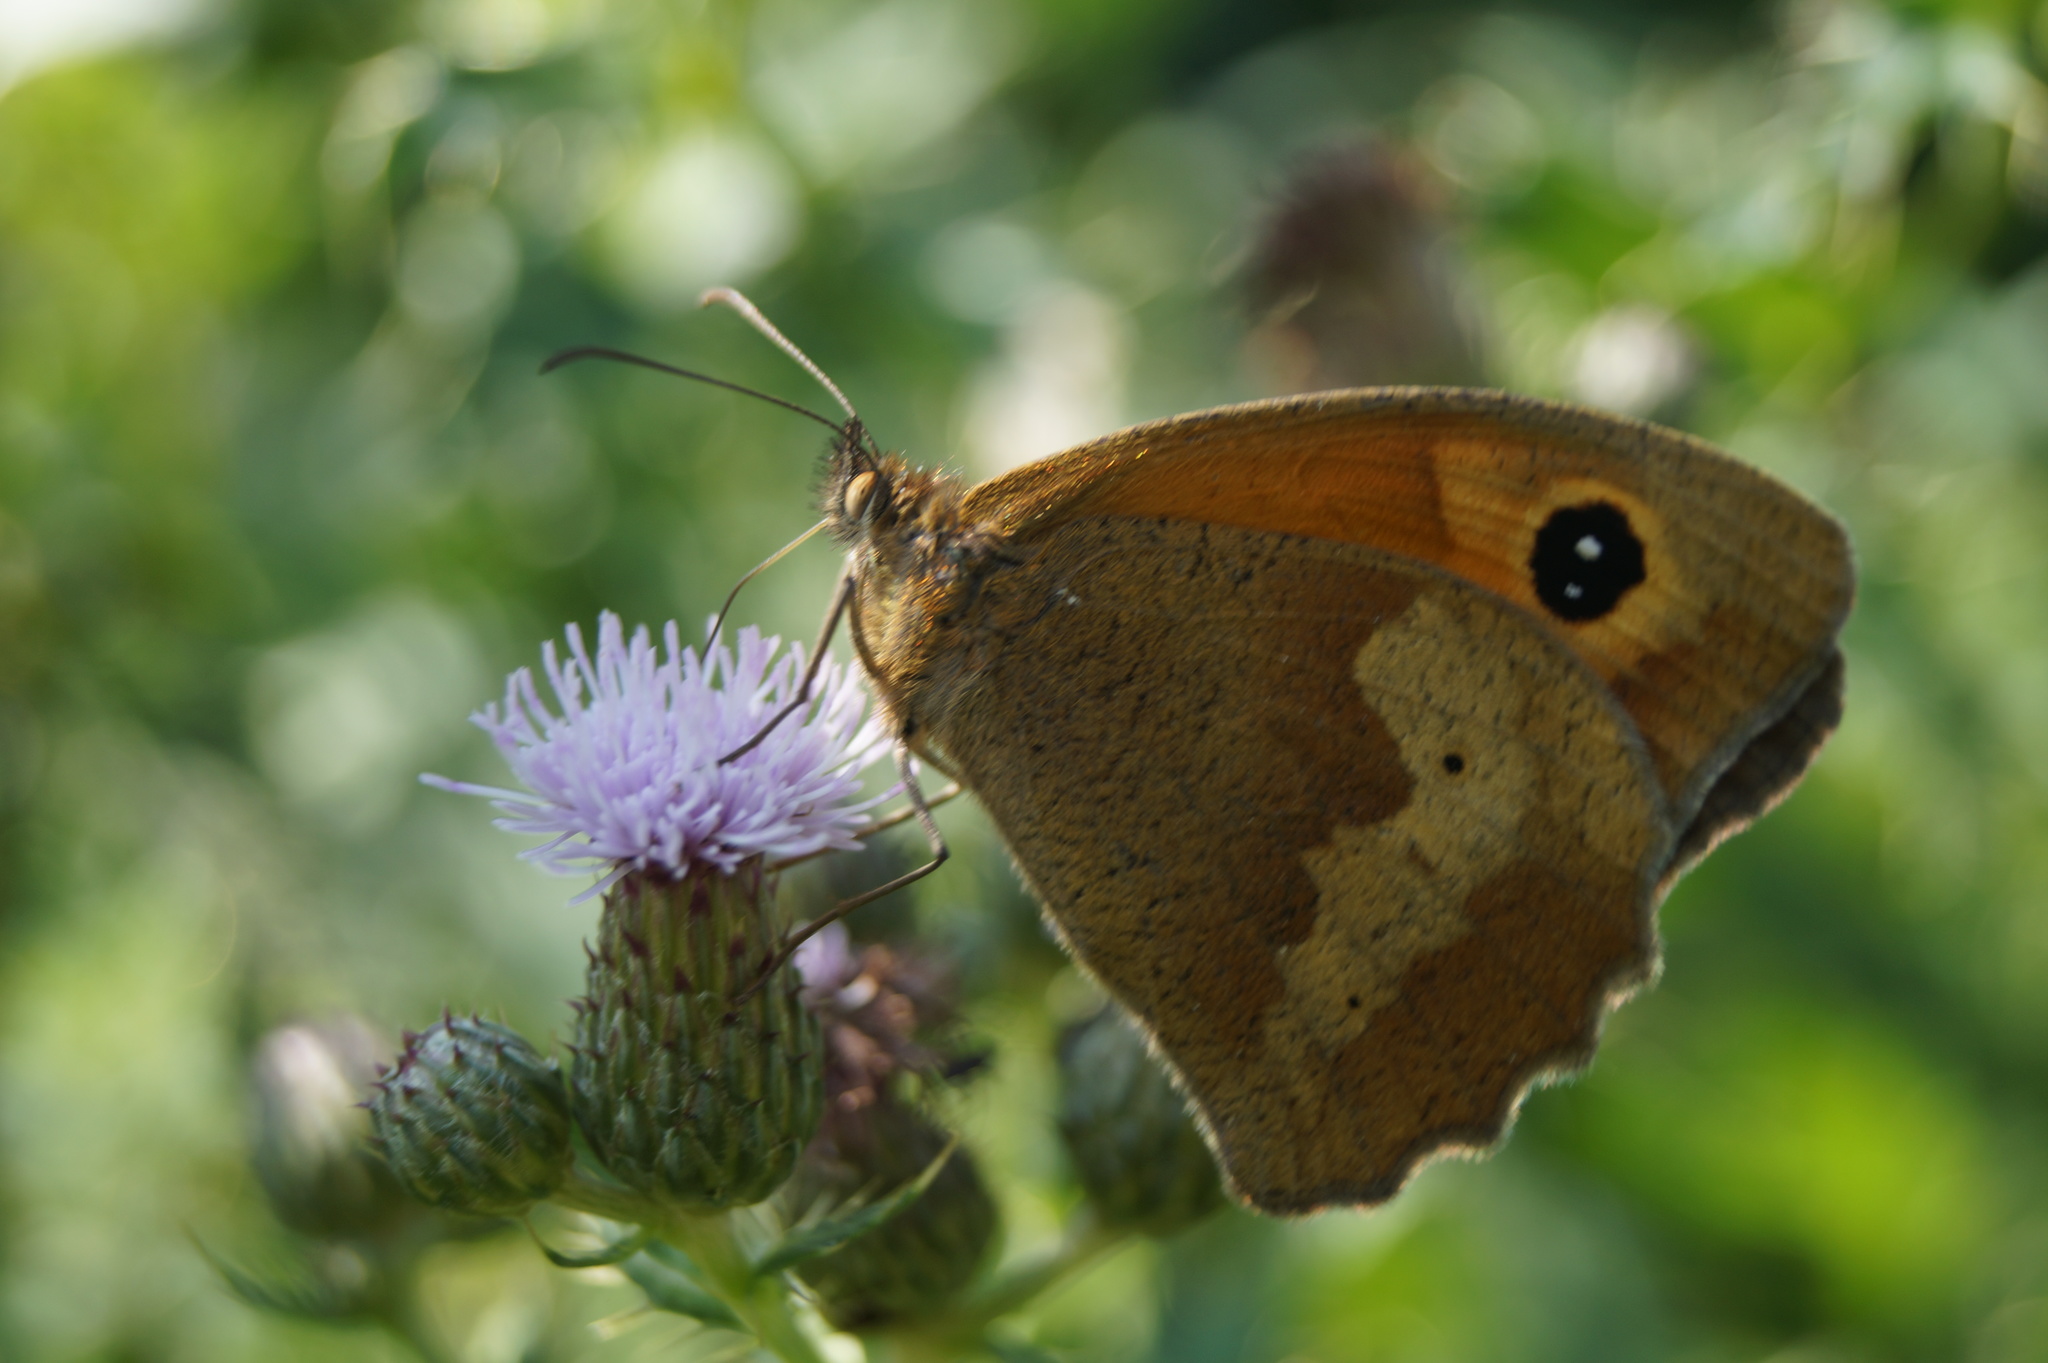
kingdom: Animalia
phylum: Arthropoda
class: Insecta
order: Lepidoptera
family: Nymphalidae
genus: Maniola
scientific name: Maniola jurtina
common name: Meadow brown
